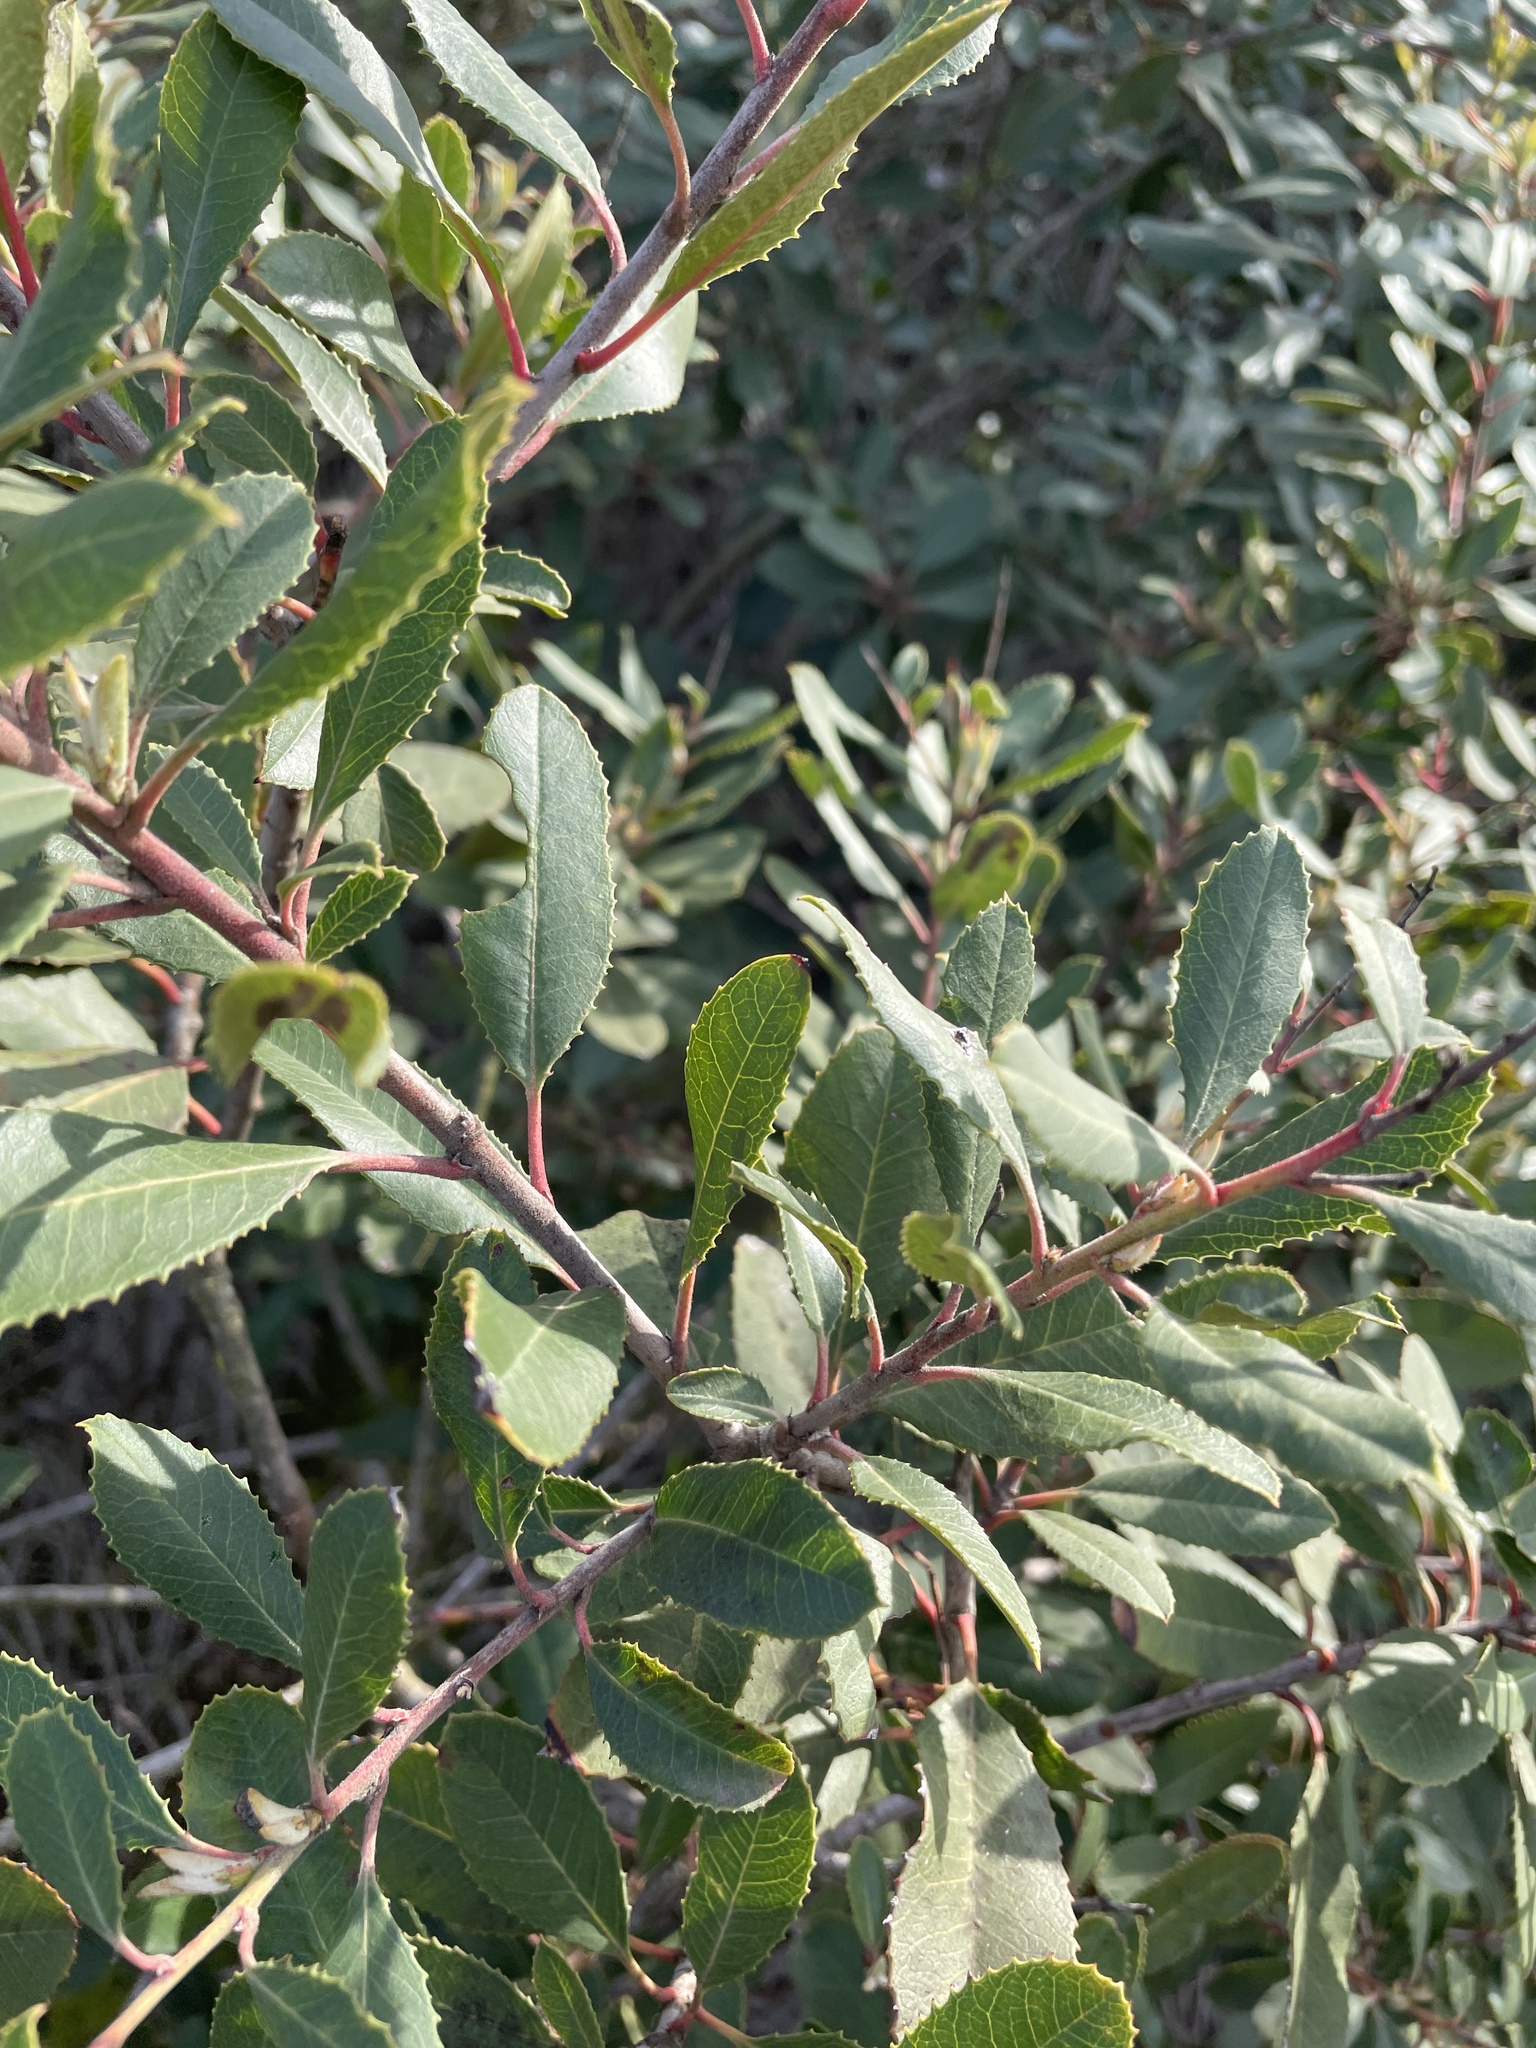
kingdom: Plantae
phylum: Tracheophyta
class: Magnoliopsida
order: Rosales
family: Rosaceae
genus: Heteromeles
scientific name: Heteromeles arbutifolia
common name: California-holly
